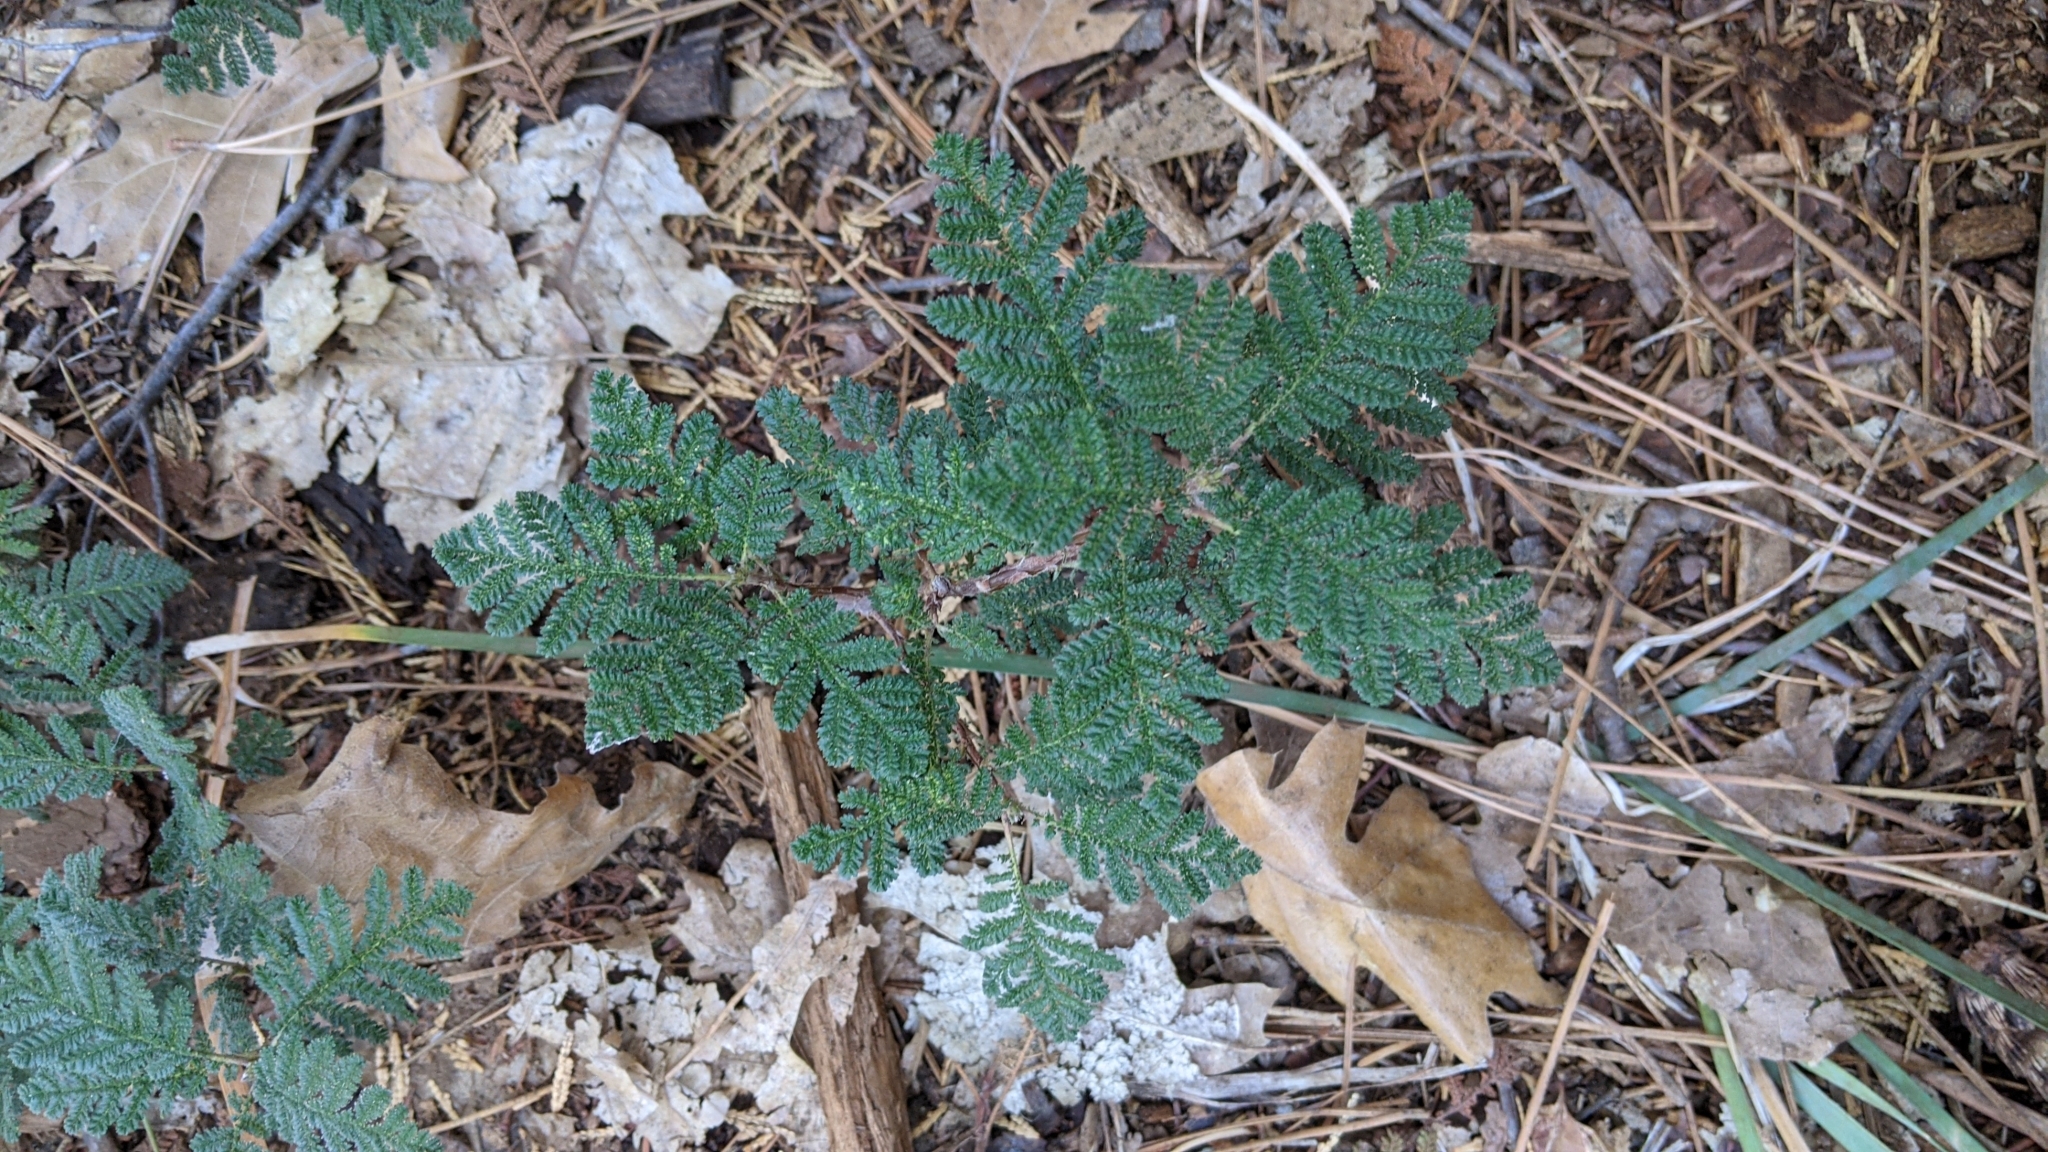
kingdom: Plantae
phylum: Tracheophyta
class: Magnoliopsida
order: Rosales
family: Rosaceae
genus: Chamaebatia
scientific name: Chamaebatia foliolosa
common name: Mountain misery
